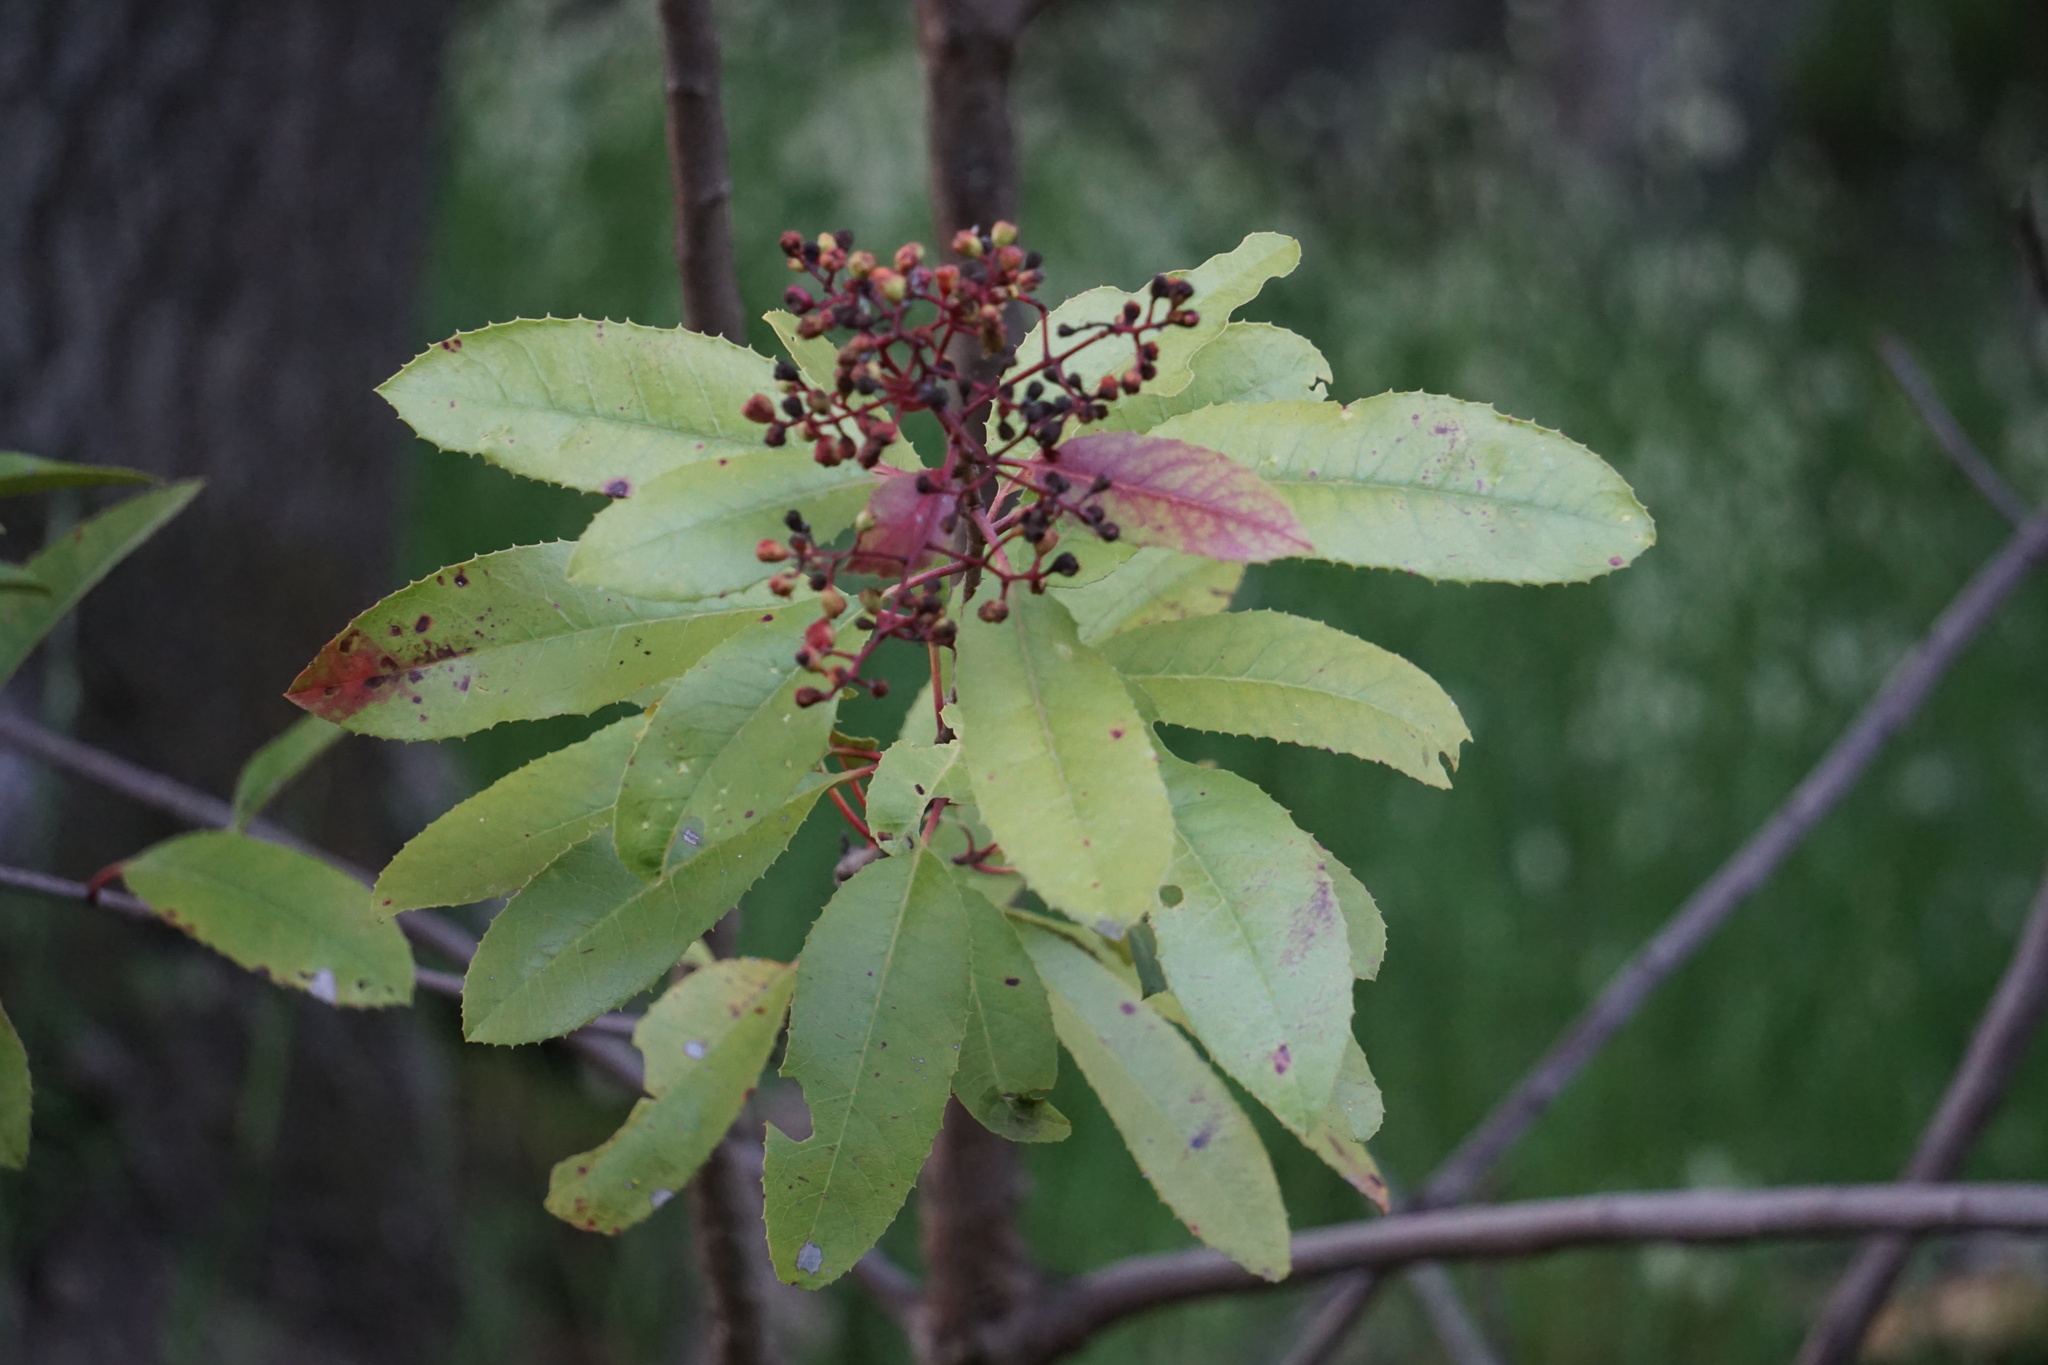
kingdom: Plantae
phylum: Tracheophyta
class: Magnoliopsida
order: Rosales
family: Rosaceae
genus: Heteromeles
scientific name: Heteromeles arbutifolia
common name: California-holly
